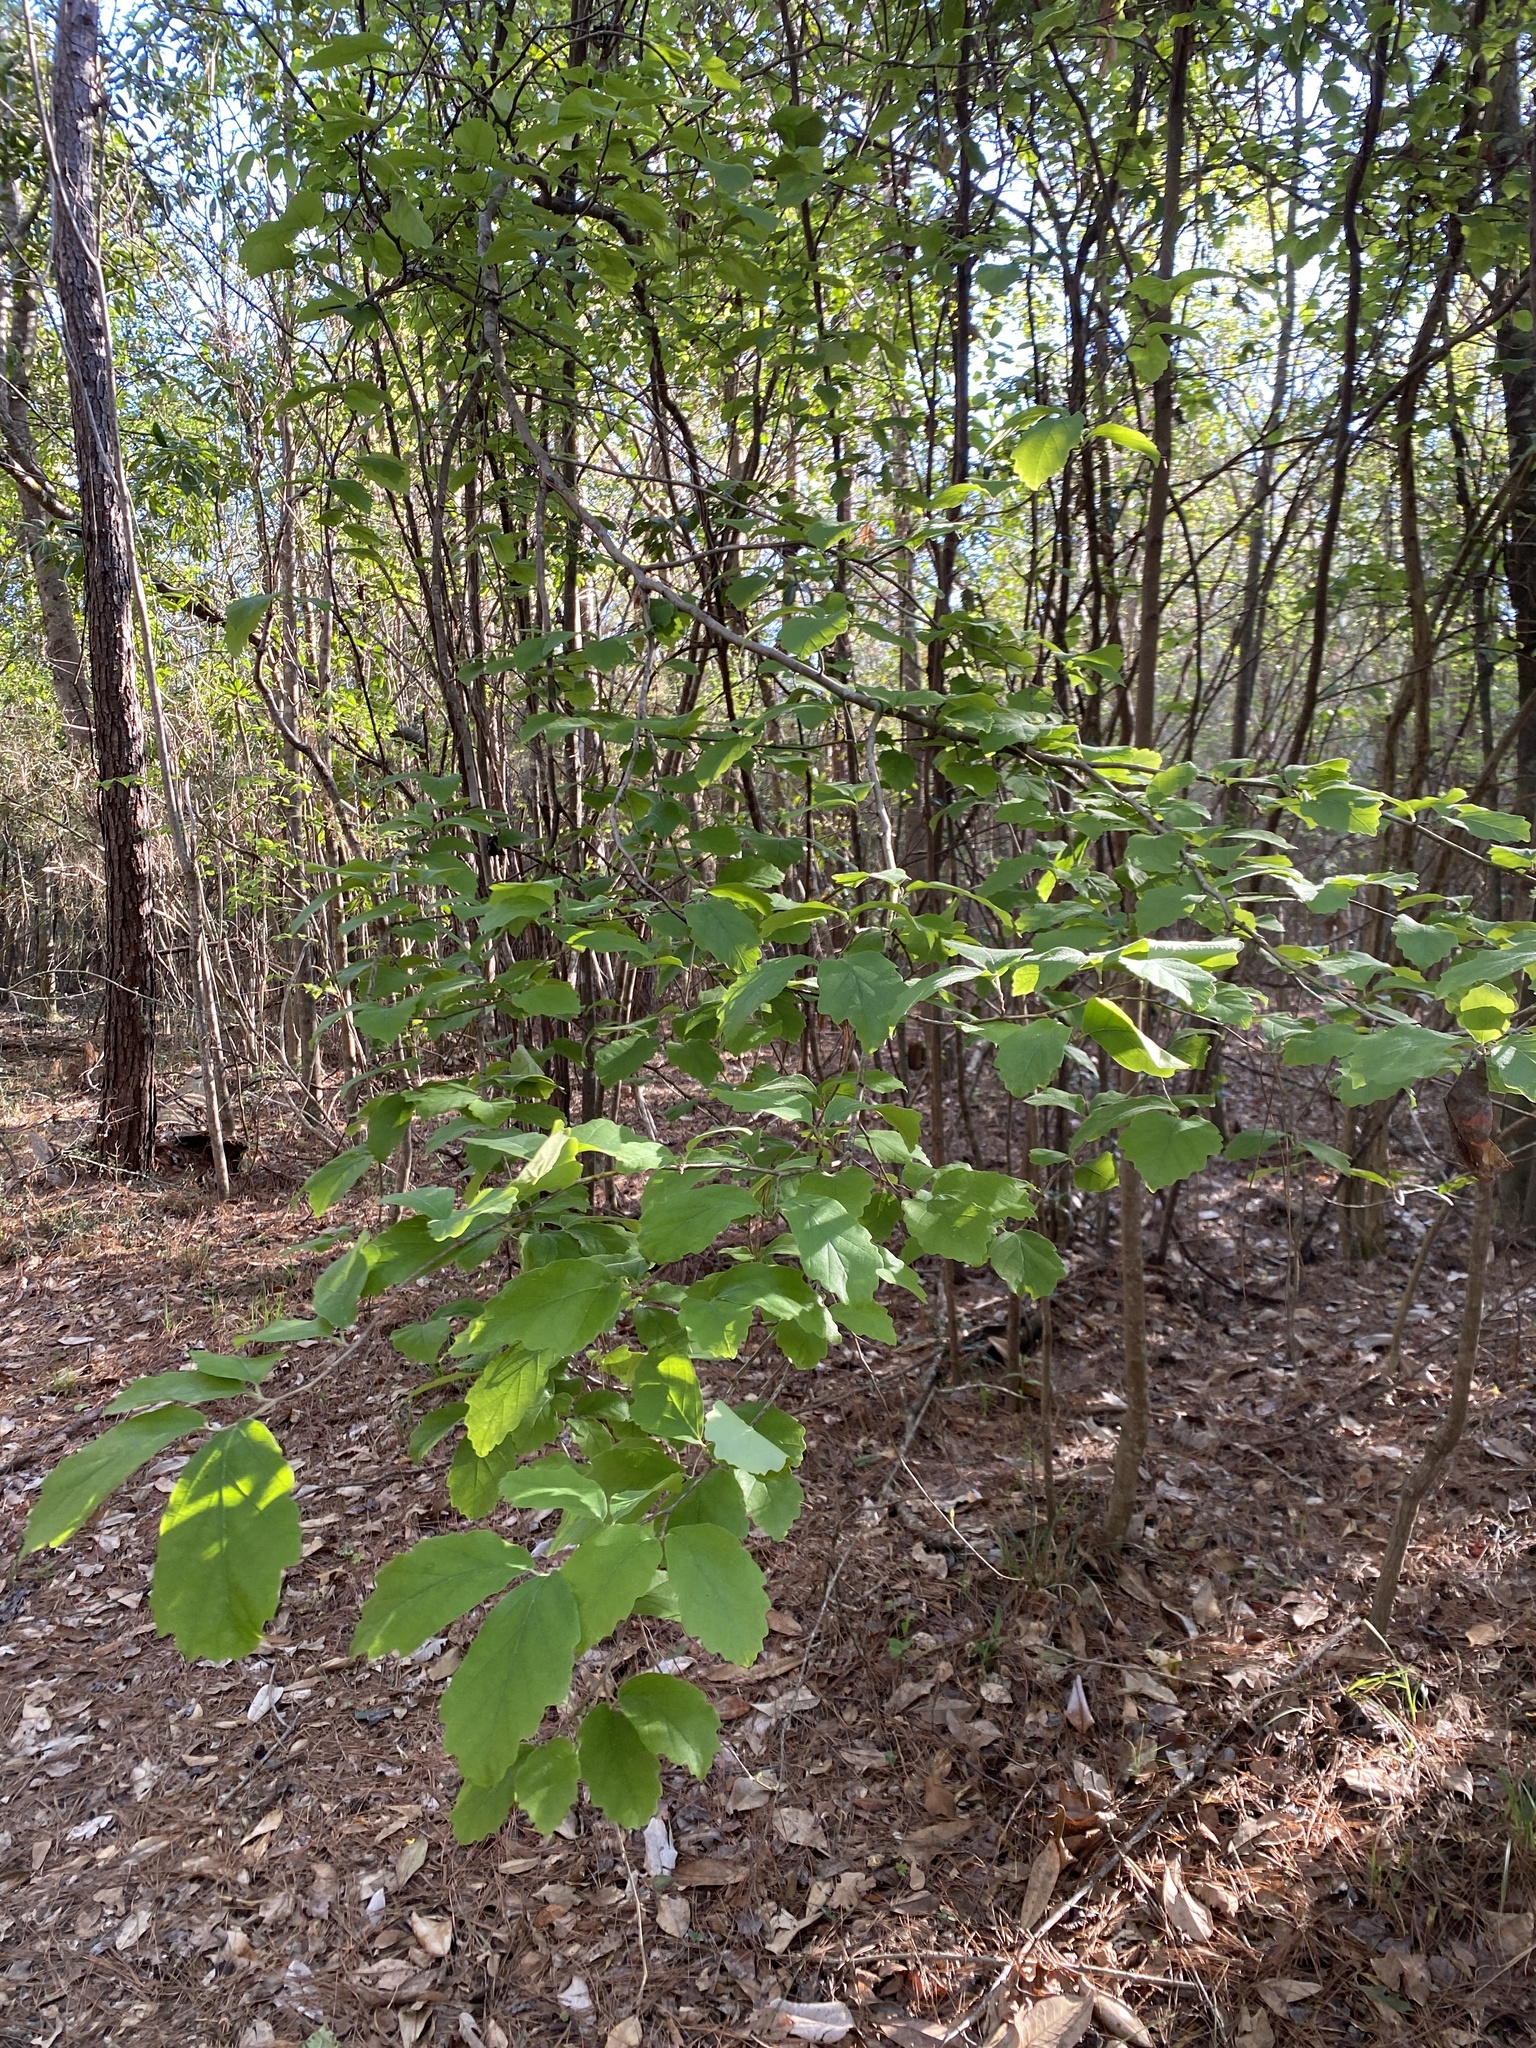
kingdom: Plantae
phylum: Tracheophyta
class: Magnoliopsida
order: Saxifragales
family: Hamamelidaceae
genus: Hamamelis
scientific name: Hamamelis virginiana
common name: Witch-hazel
